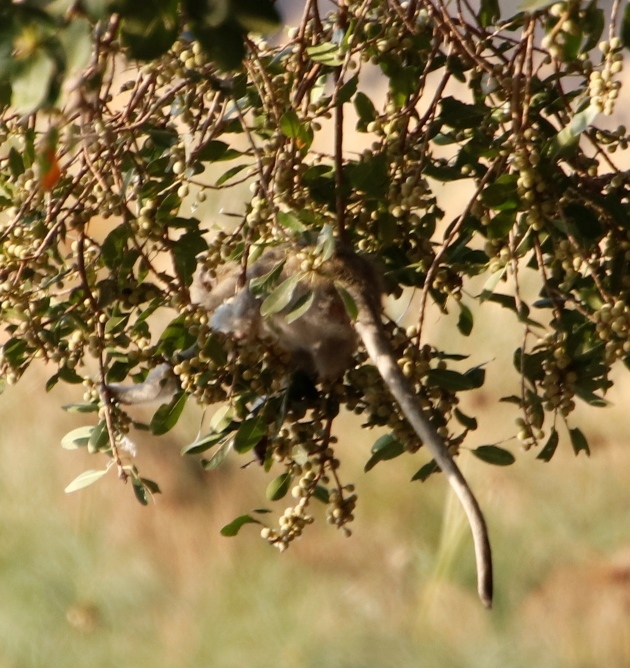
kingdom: Plantae
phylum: Tracheophyta
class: Magnoliopsida
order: Rosales
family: Moraceae
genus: Ficus
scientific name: Ficus thonningii
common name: Fig
